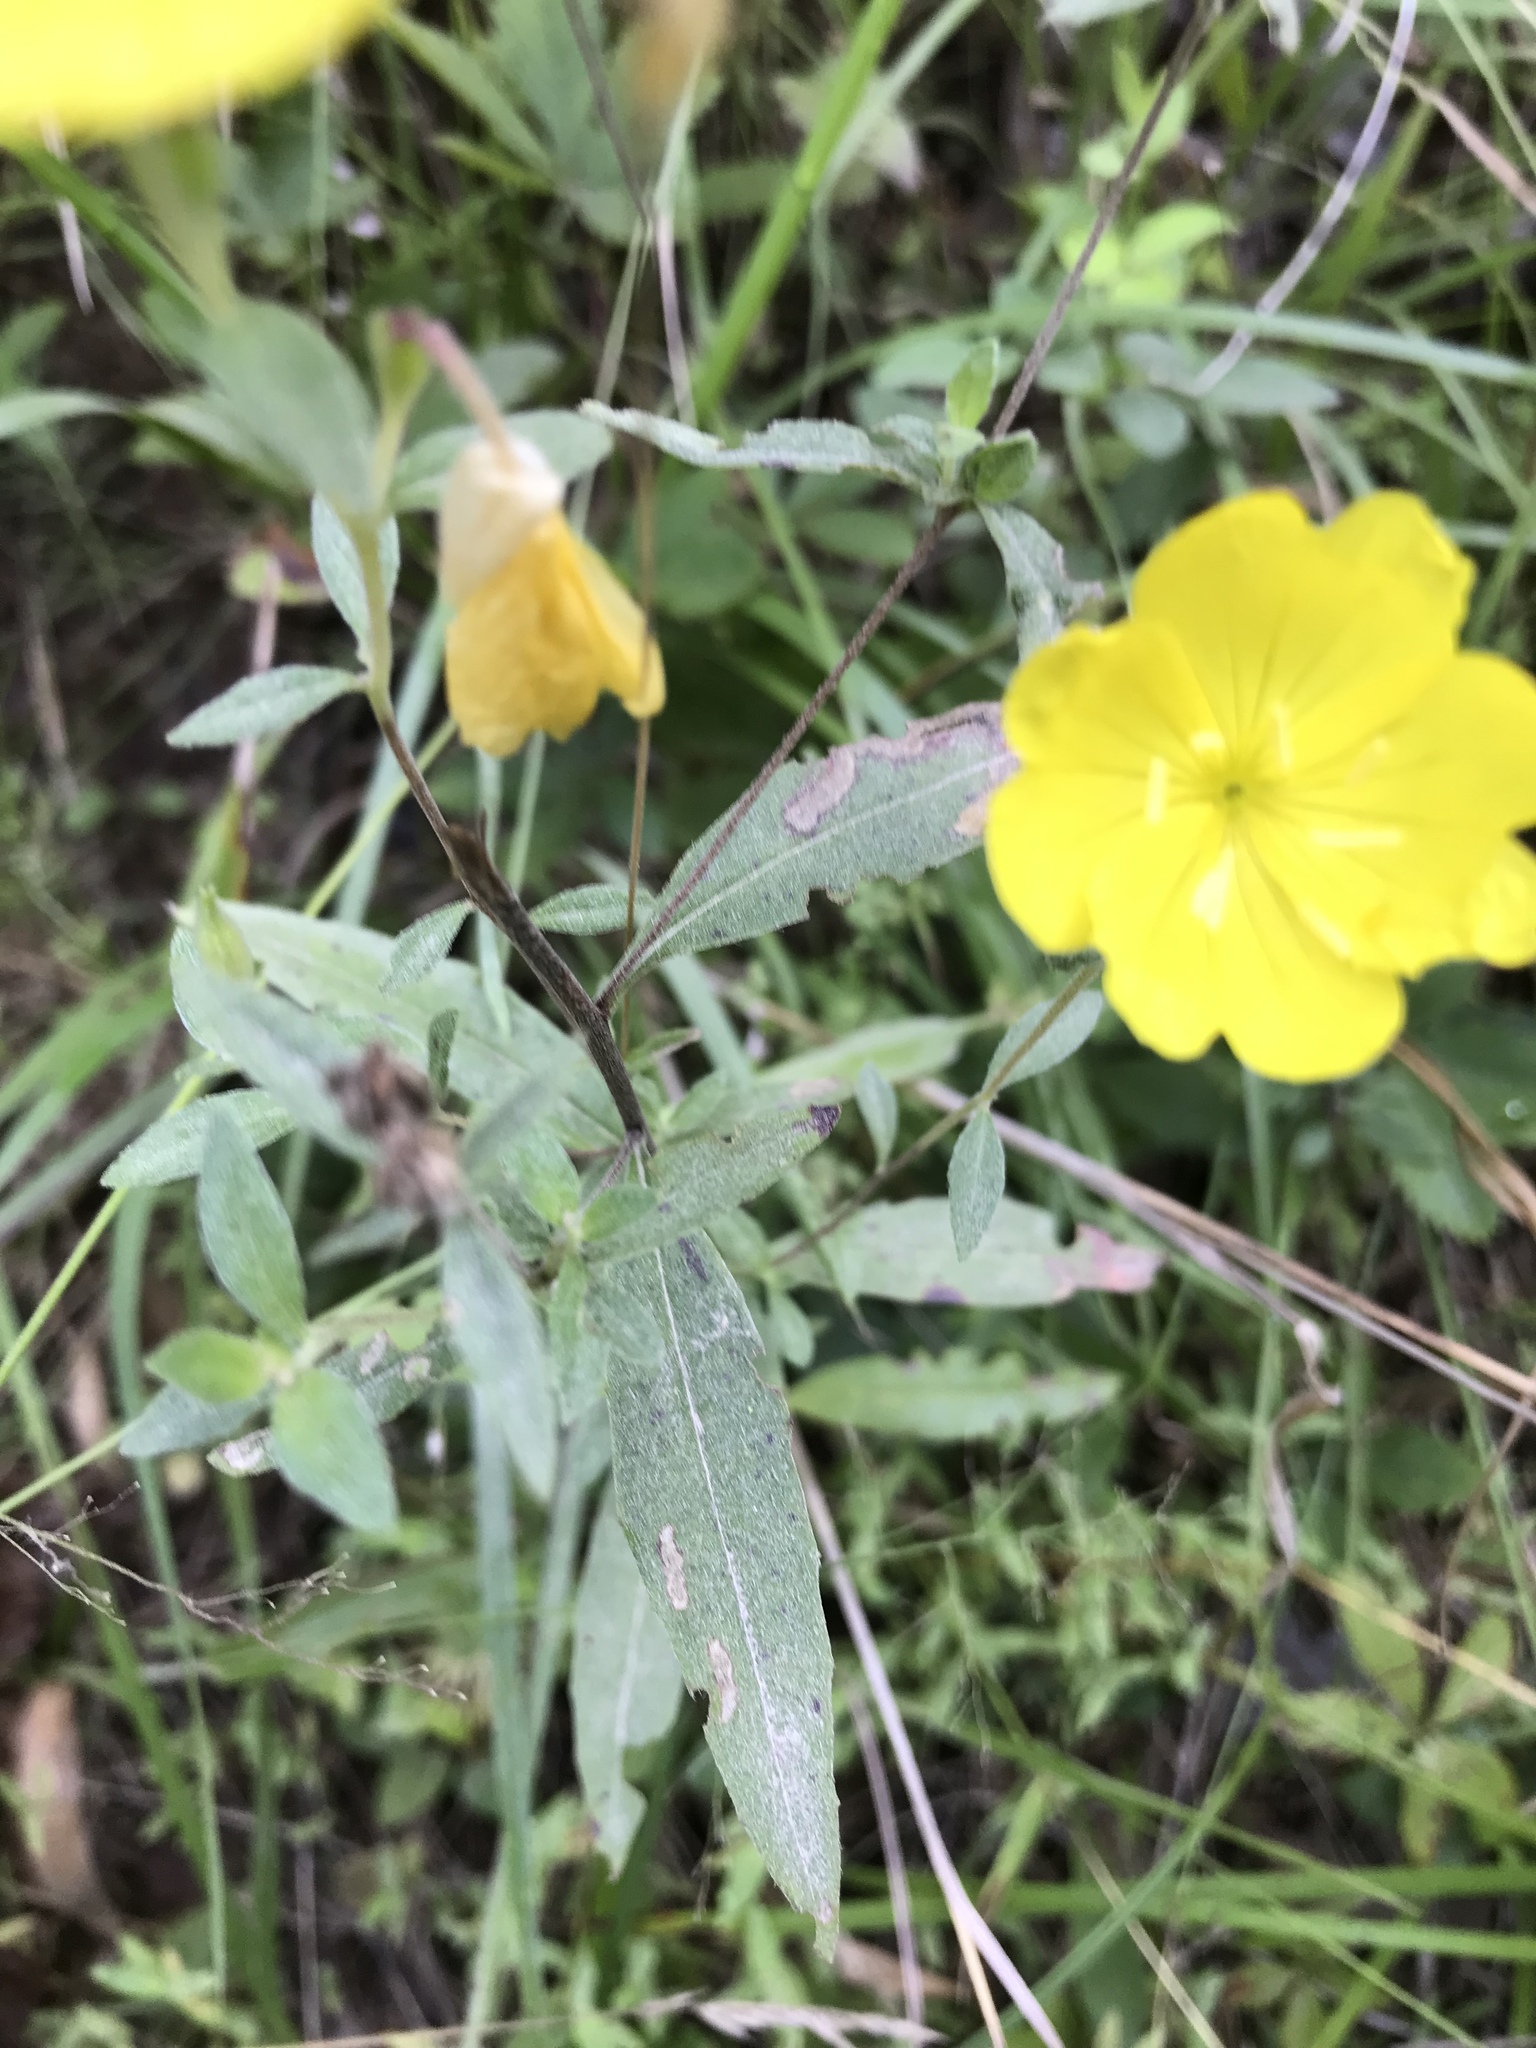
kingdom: Plantae
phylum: Tracheophyta
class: Magnoliopsida
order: Myrtales
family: Onagraceae
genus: Oenothera
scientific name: Oenothera fruticosa
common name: Southern sundrops
